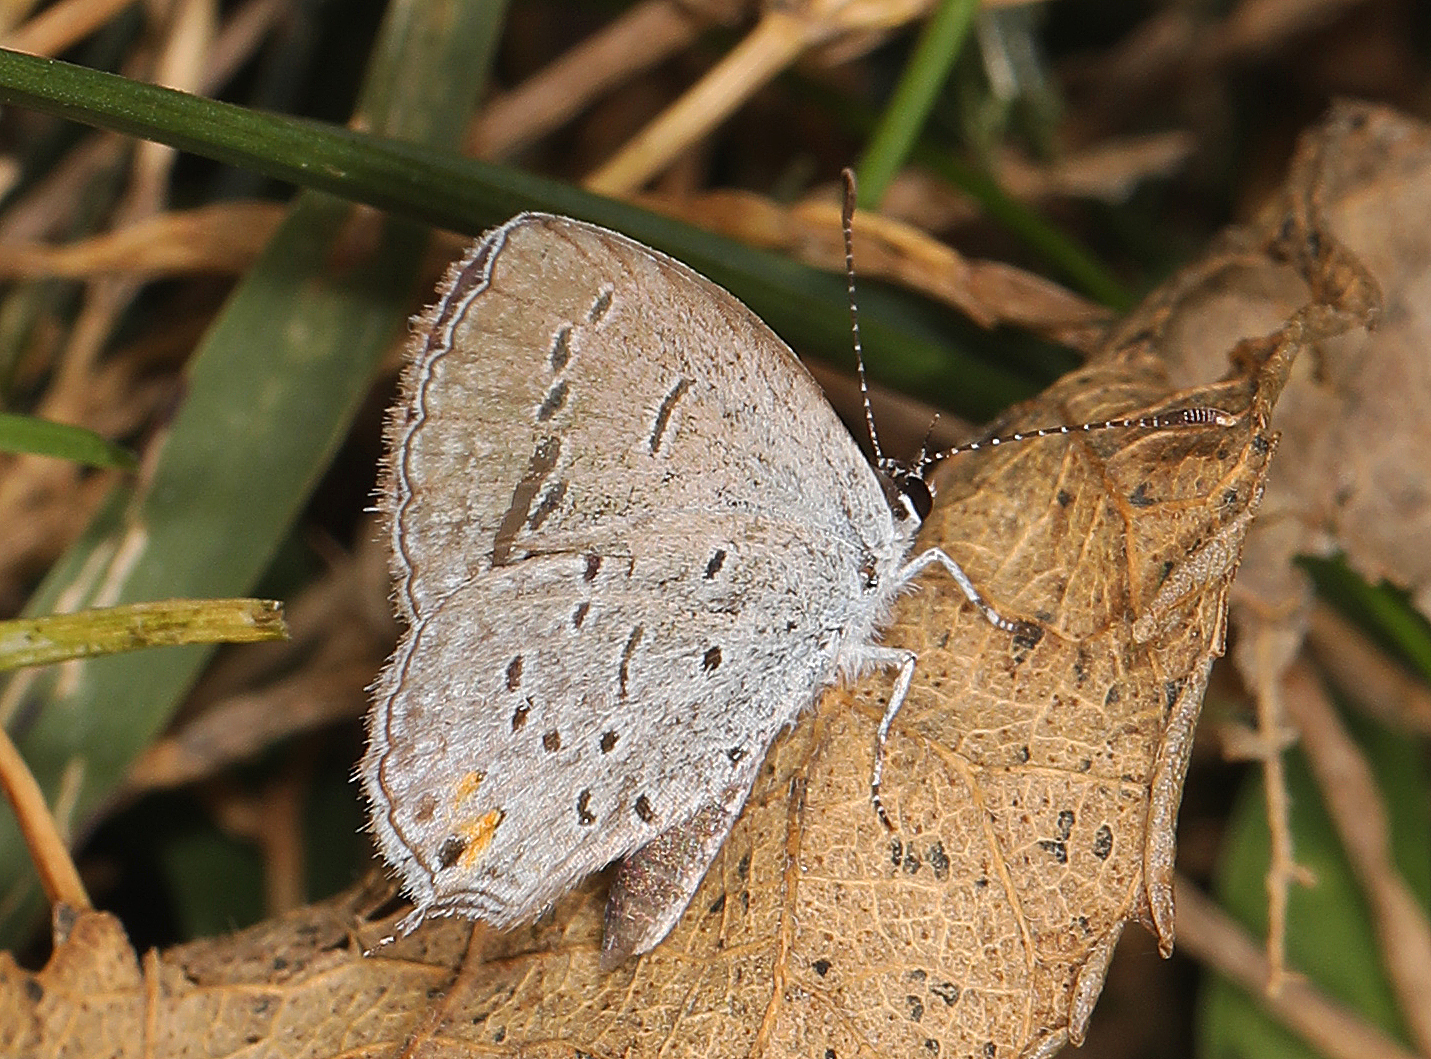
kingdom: Animalia
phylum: Arthropoda
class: Insecta
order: Lepidoptera
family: Lycaenidae
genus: Elkalyce
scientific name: Elkalyce comyntas
